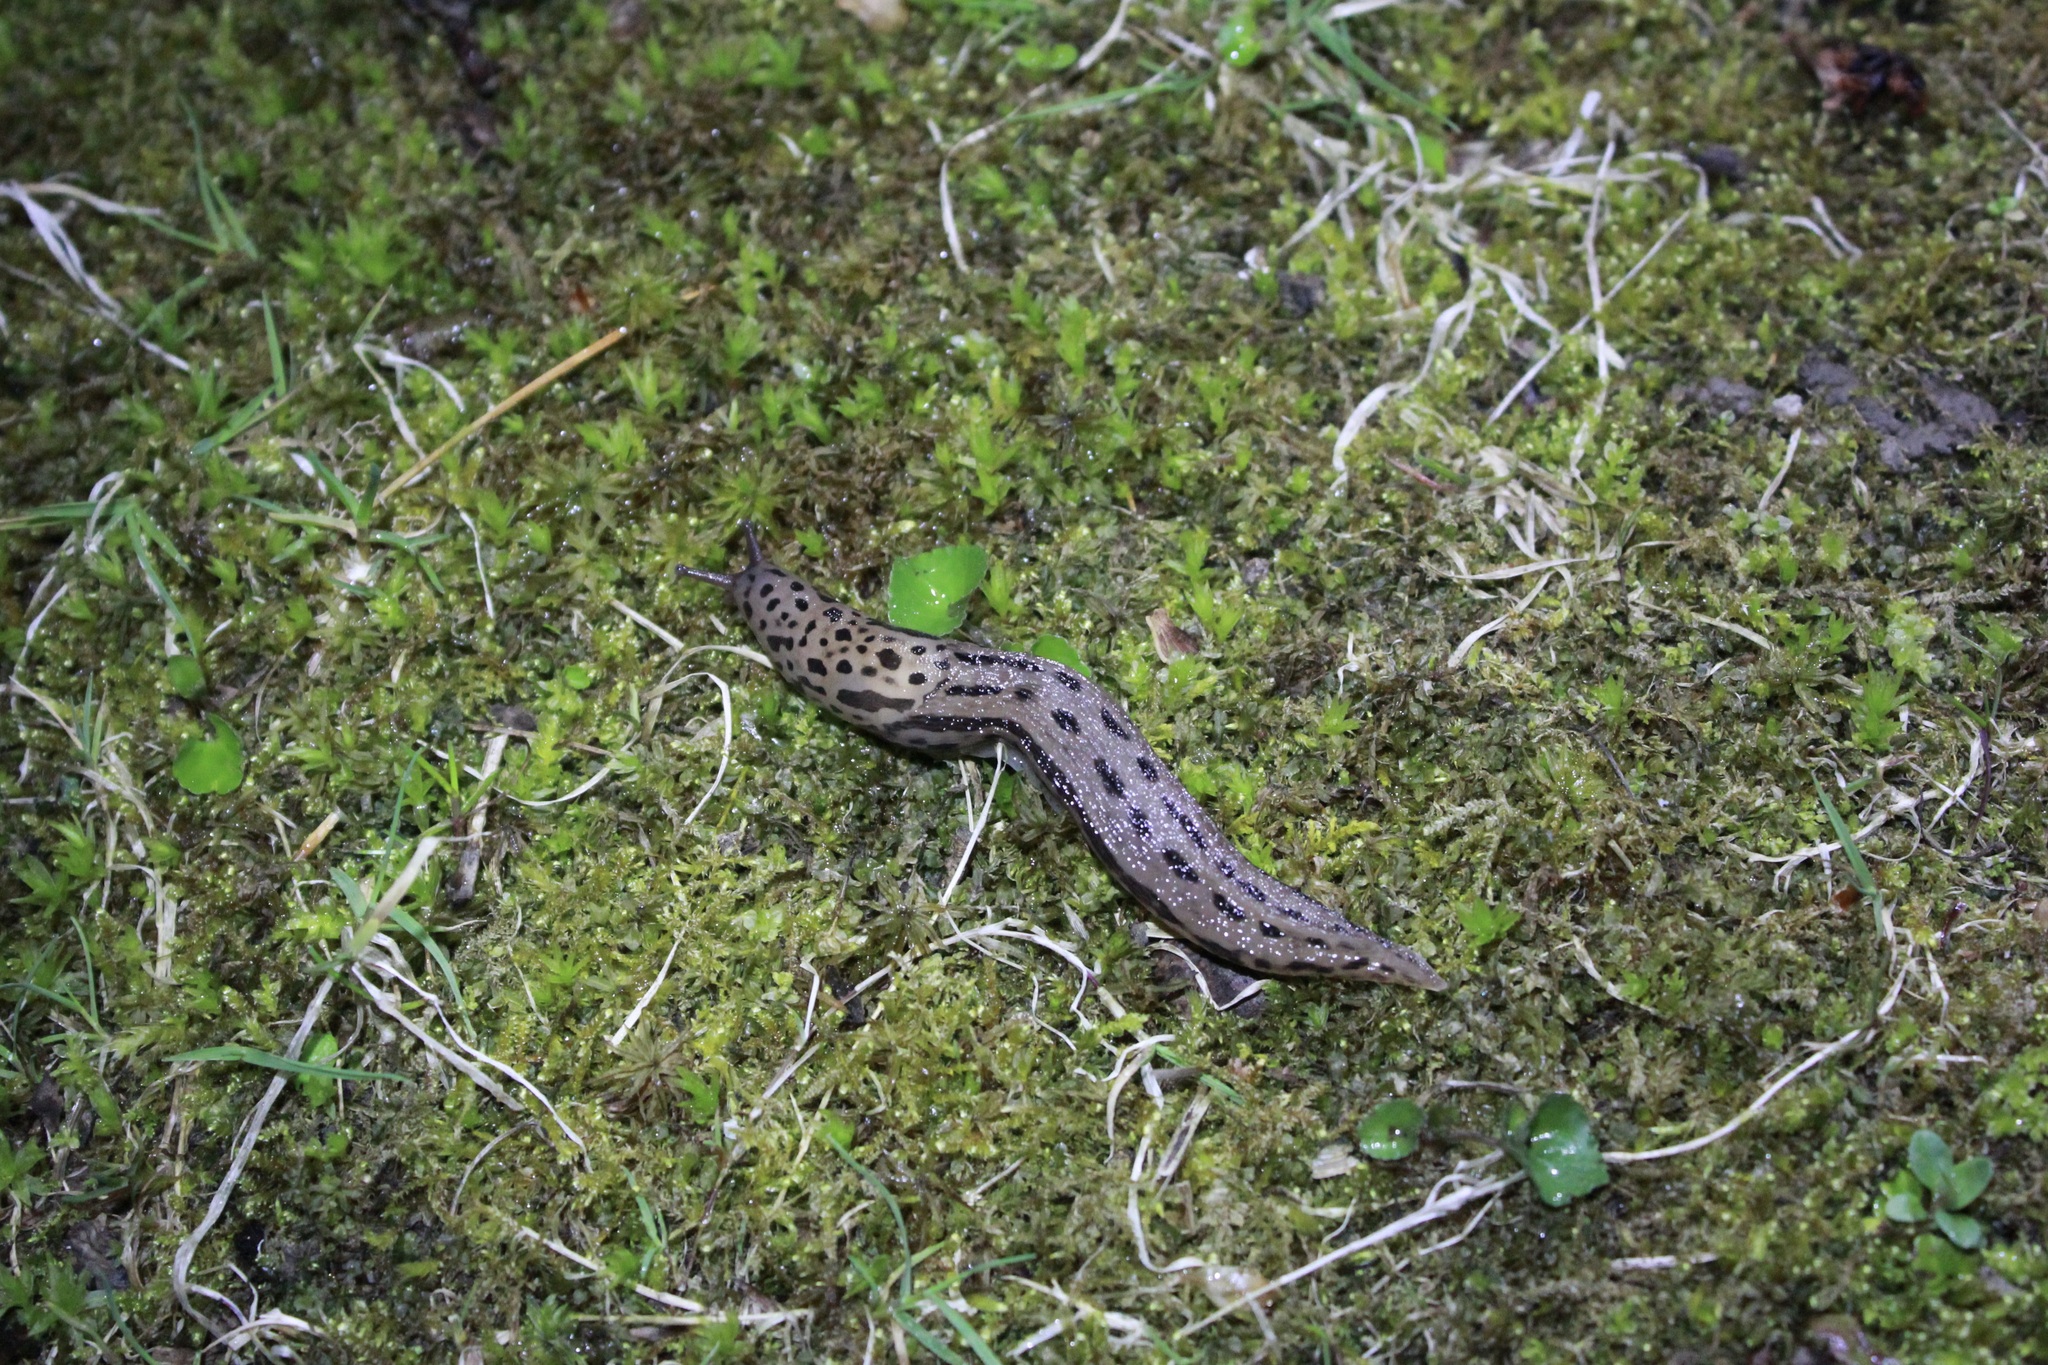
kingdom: Animalia
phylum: Mollusca
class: Gastropoda
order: Stylommatophora
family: Limacidae
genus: Limax
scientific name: Limax maximus
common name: Great grey slug
